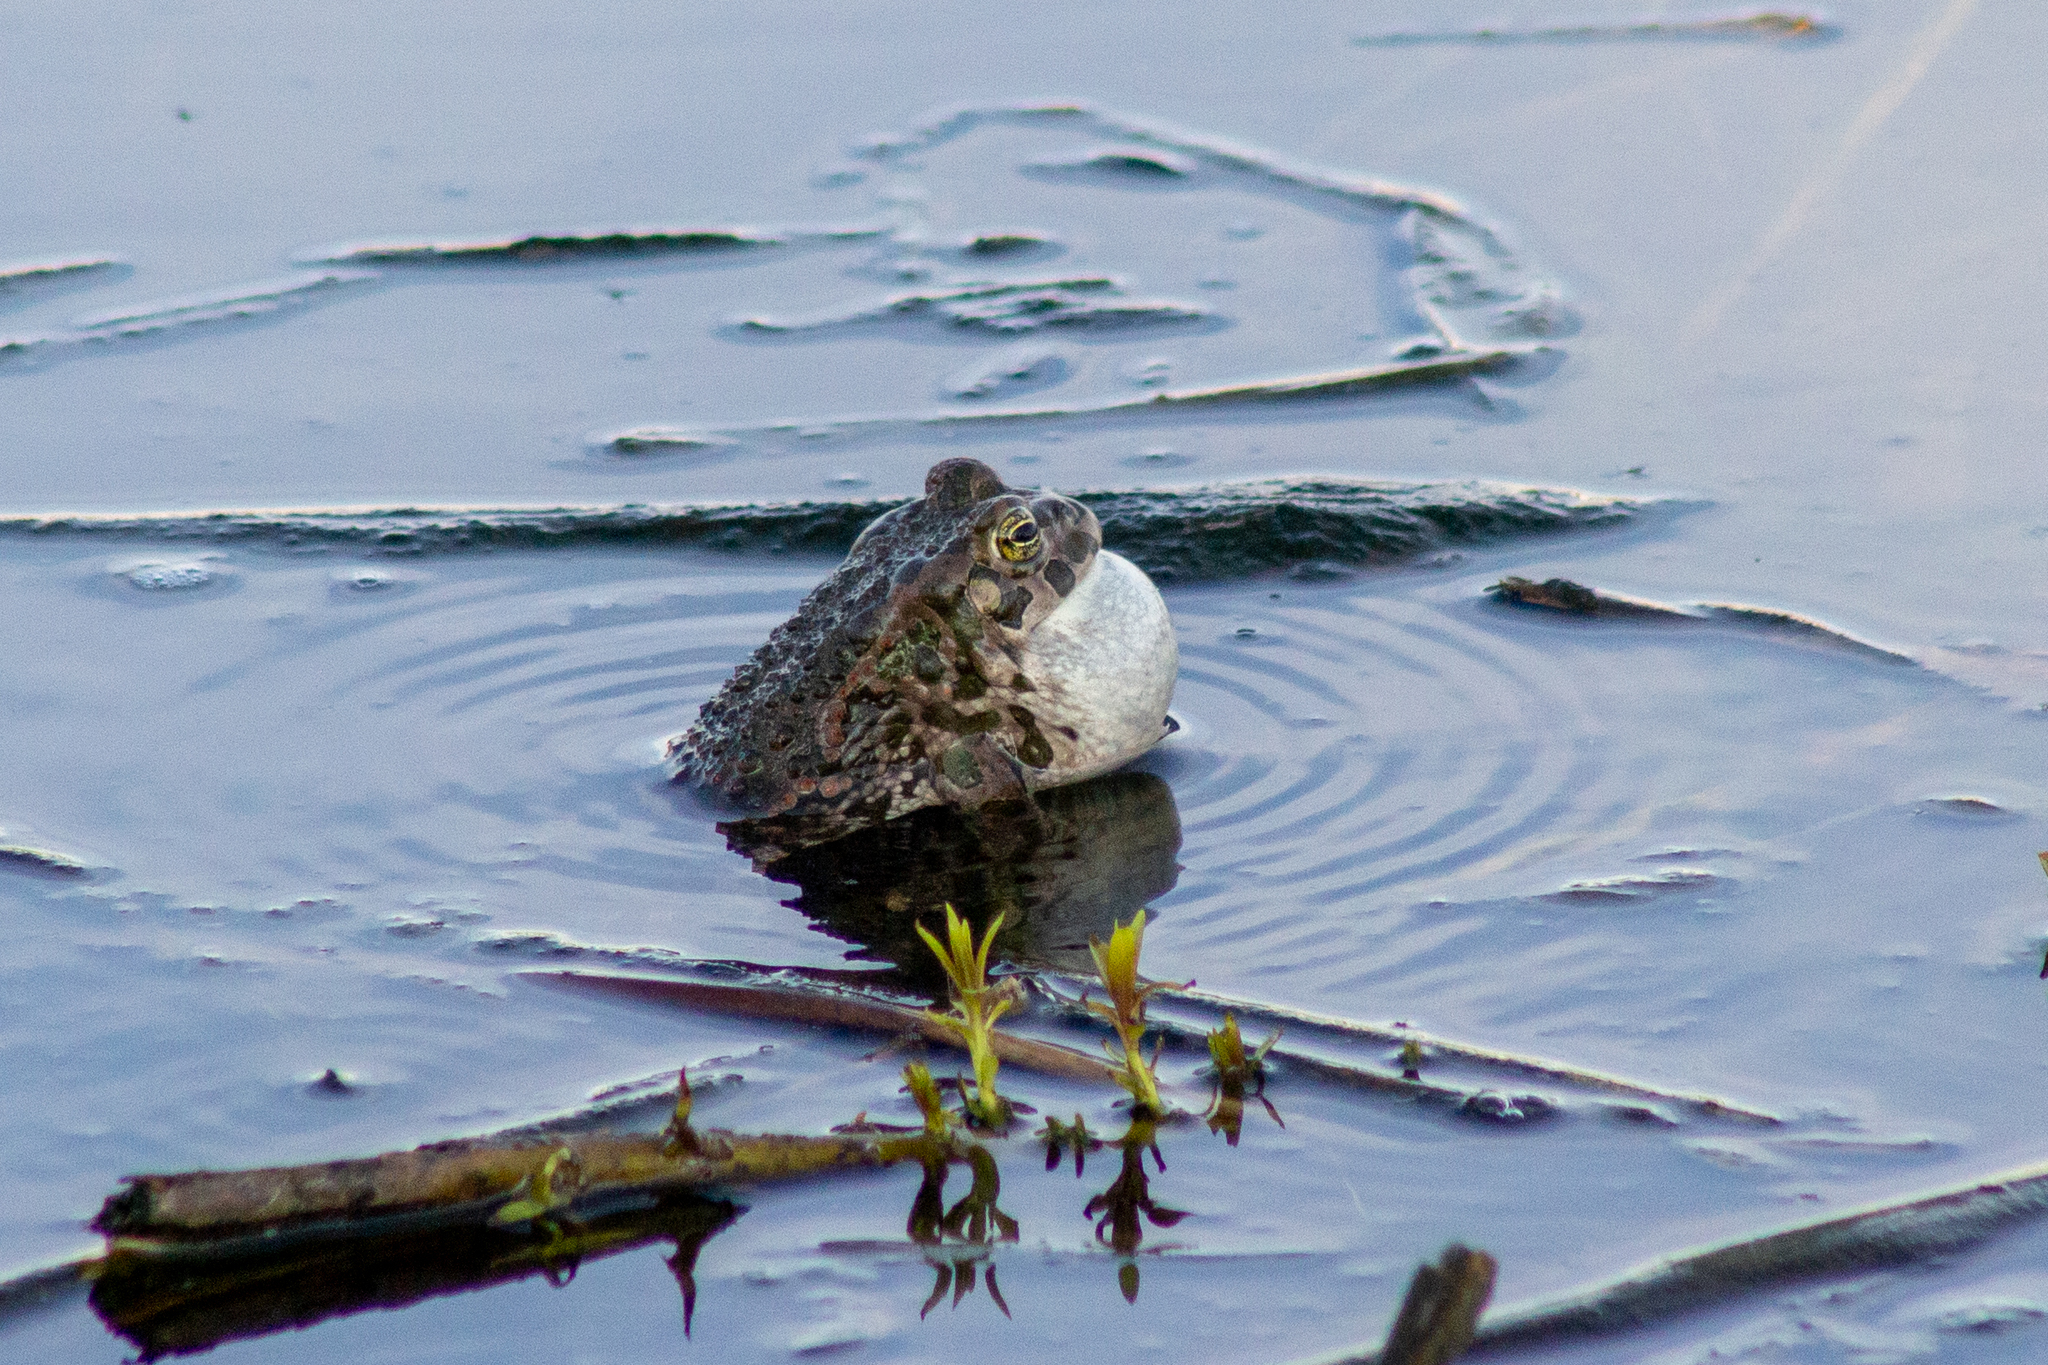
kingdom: Animalia
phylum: Chordata
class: Amphibia
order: Anura
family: Bufonidae
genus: Bufotes
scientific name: Bufotes viridis
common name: European green toad
